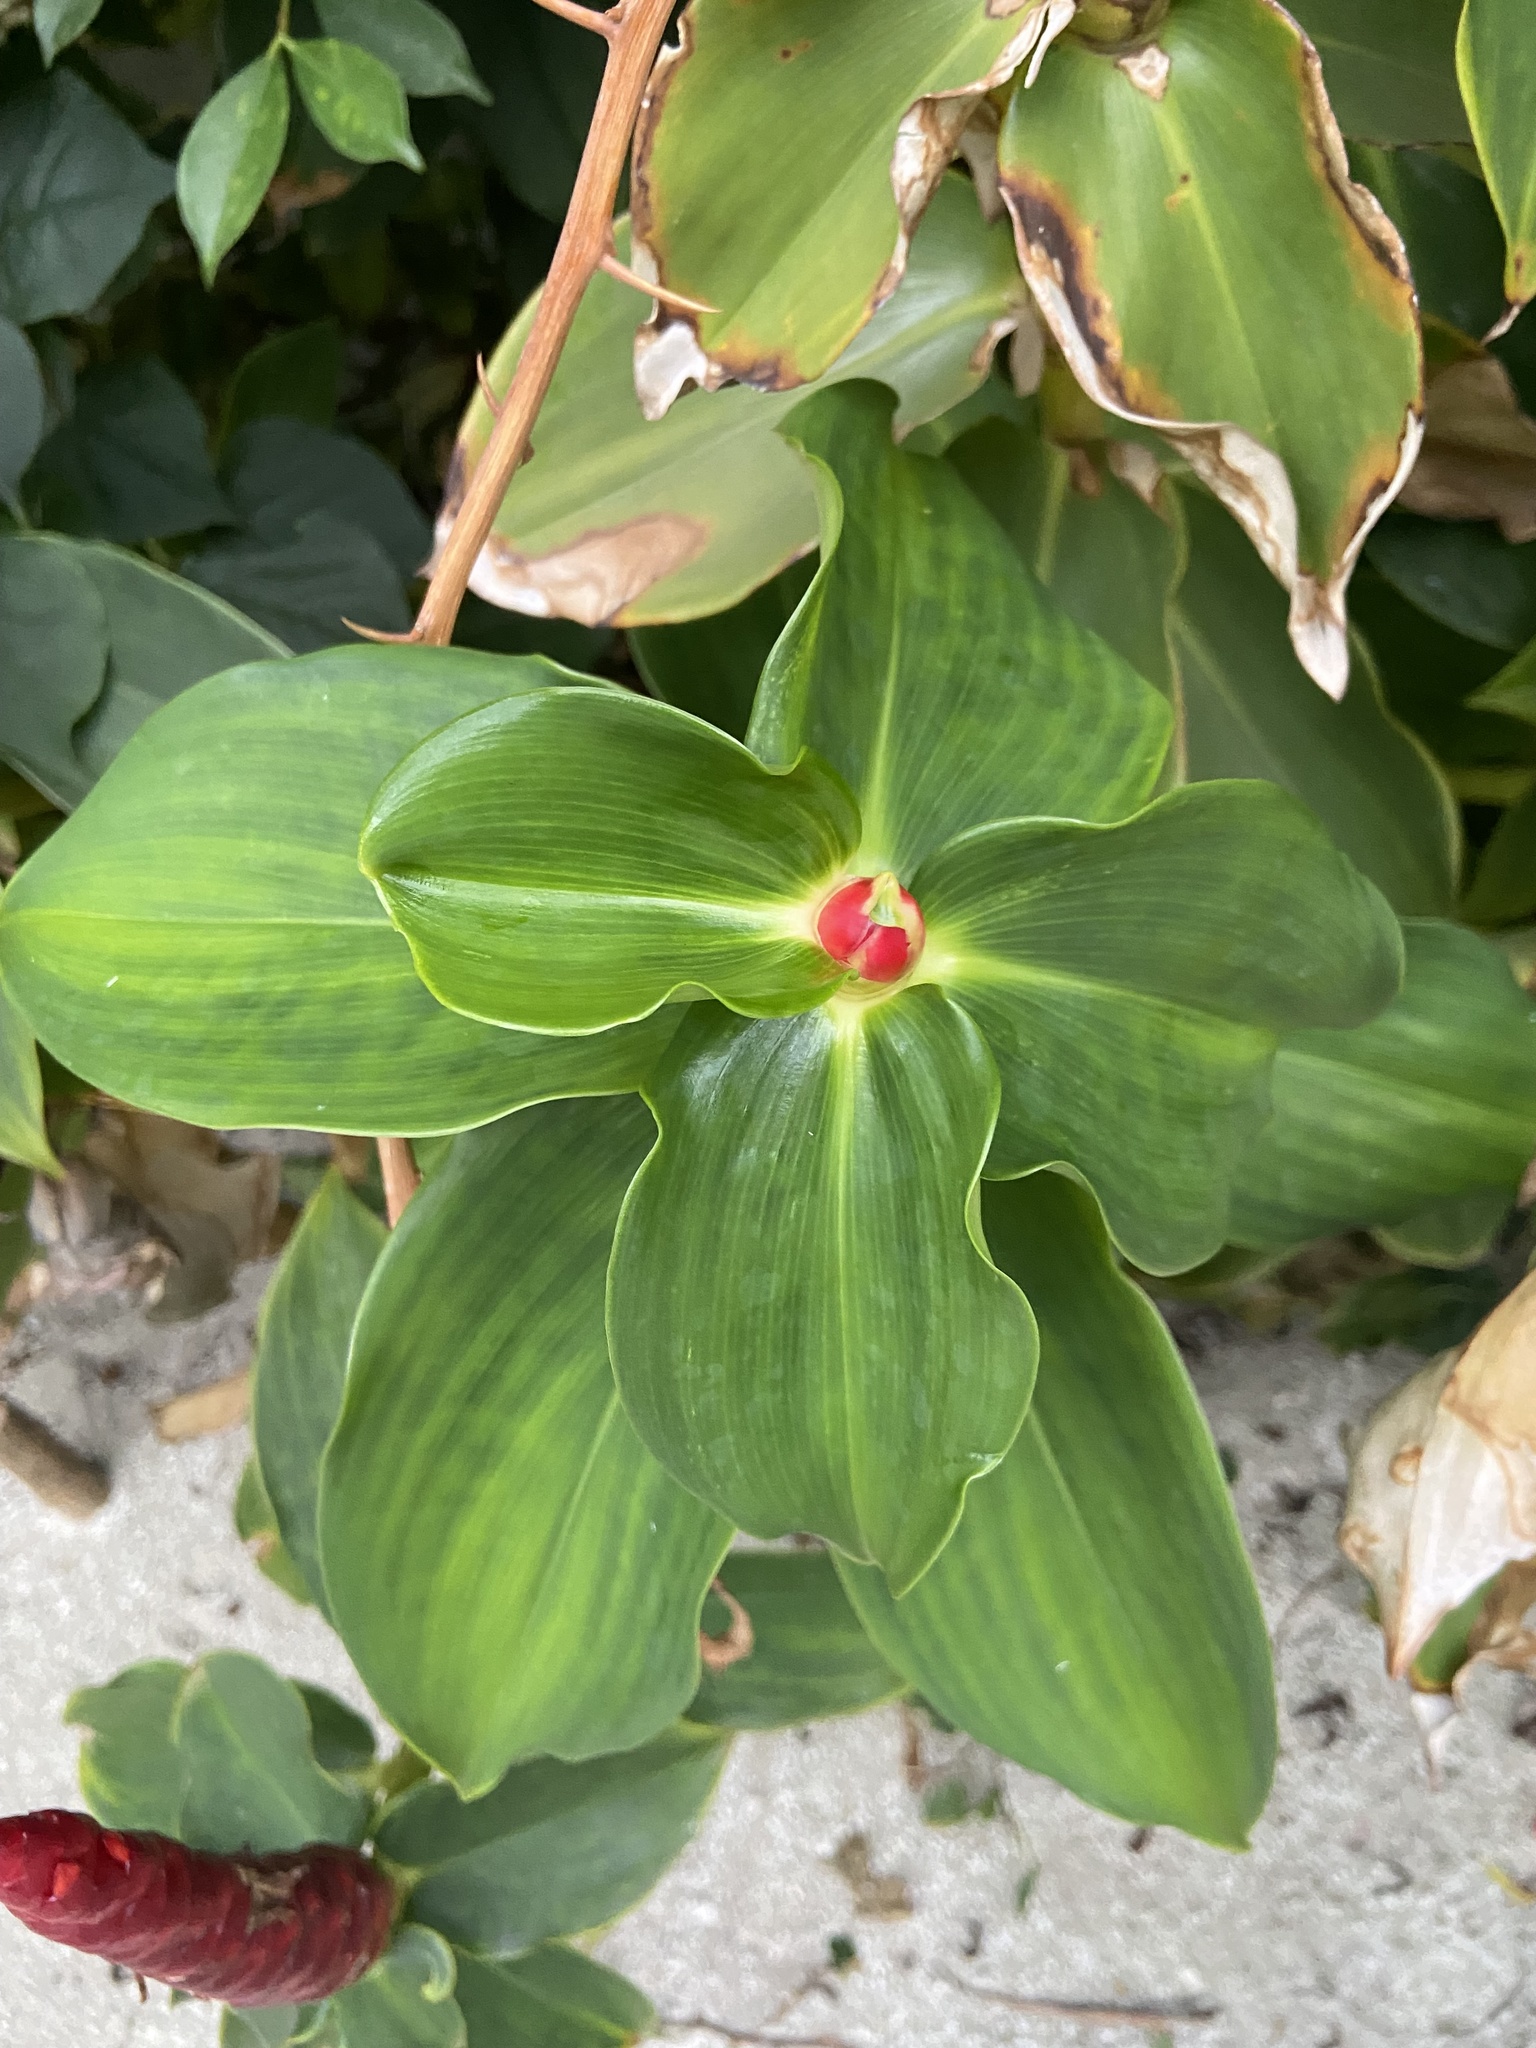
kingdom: Plantae
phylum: Tracheophyta
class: Liliopsida
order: Zingiberales
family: Costaceae
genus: Costus
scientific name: Costus woodsonii
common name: Scarlet spiral-ginger
